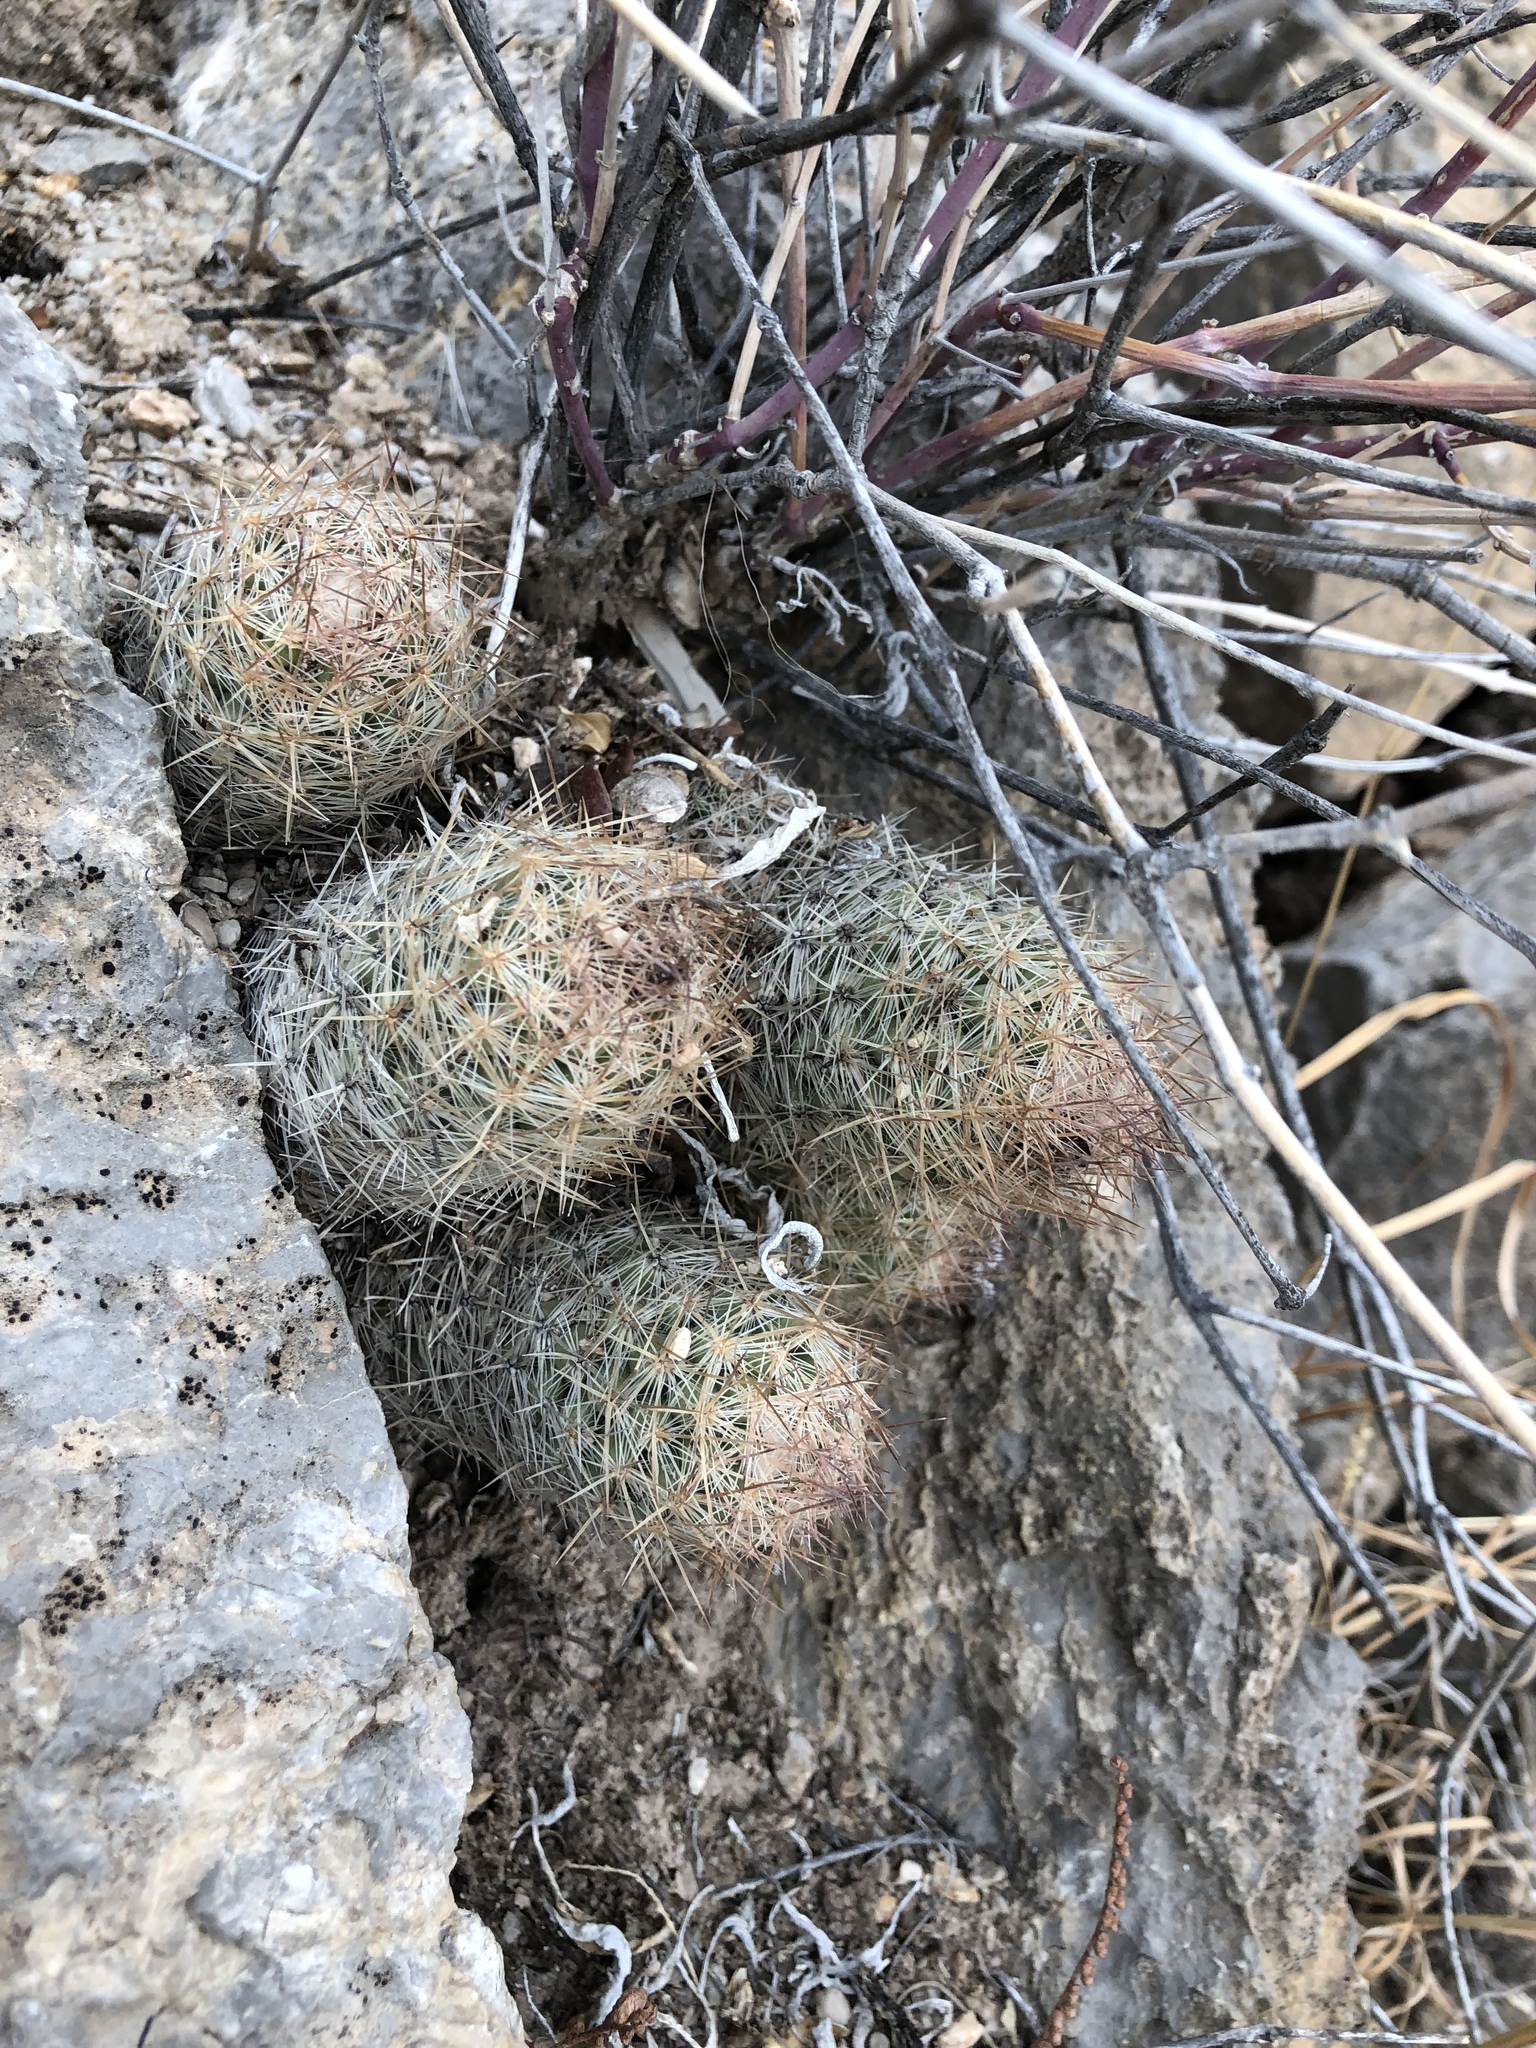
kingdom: Plantae
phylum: Tracheophyta
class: Magnoliopsida
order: Caryophyllales
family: Cactaceae
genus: Pelecyphora
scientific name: Pelecyphora tuberculosa
